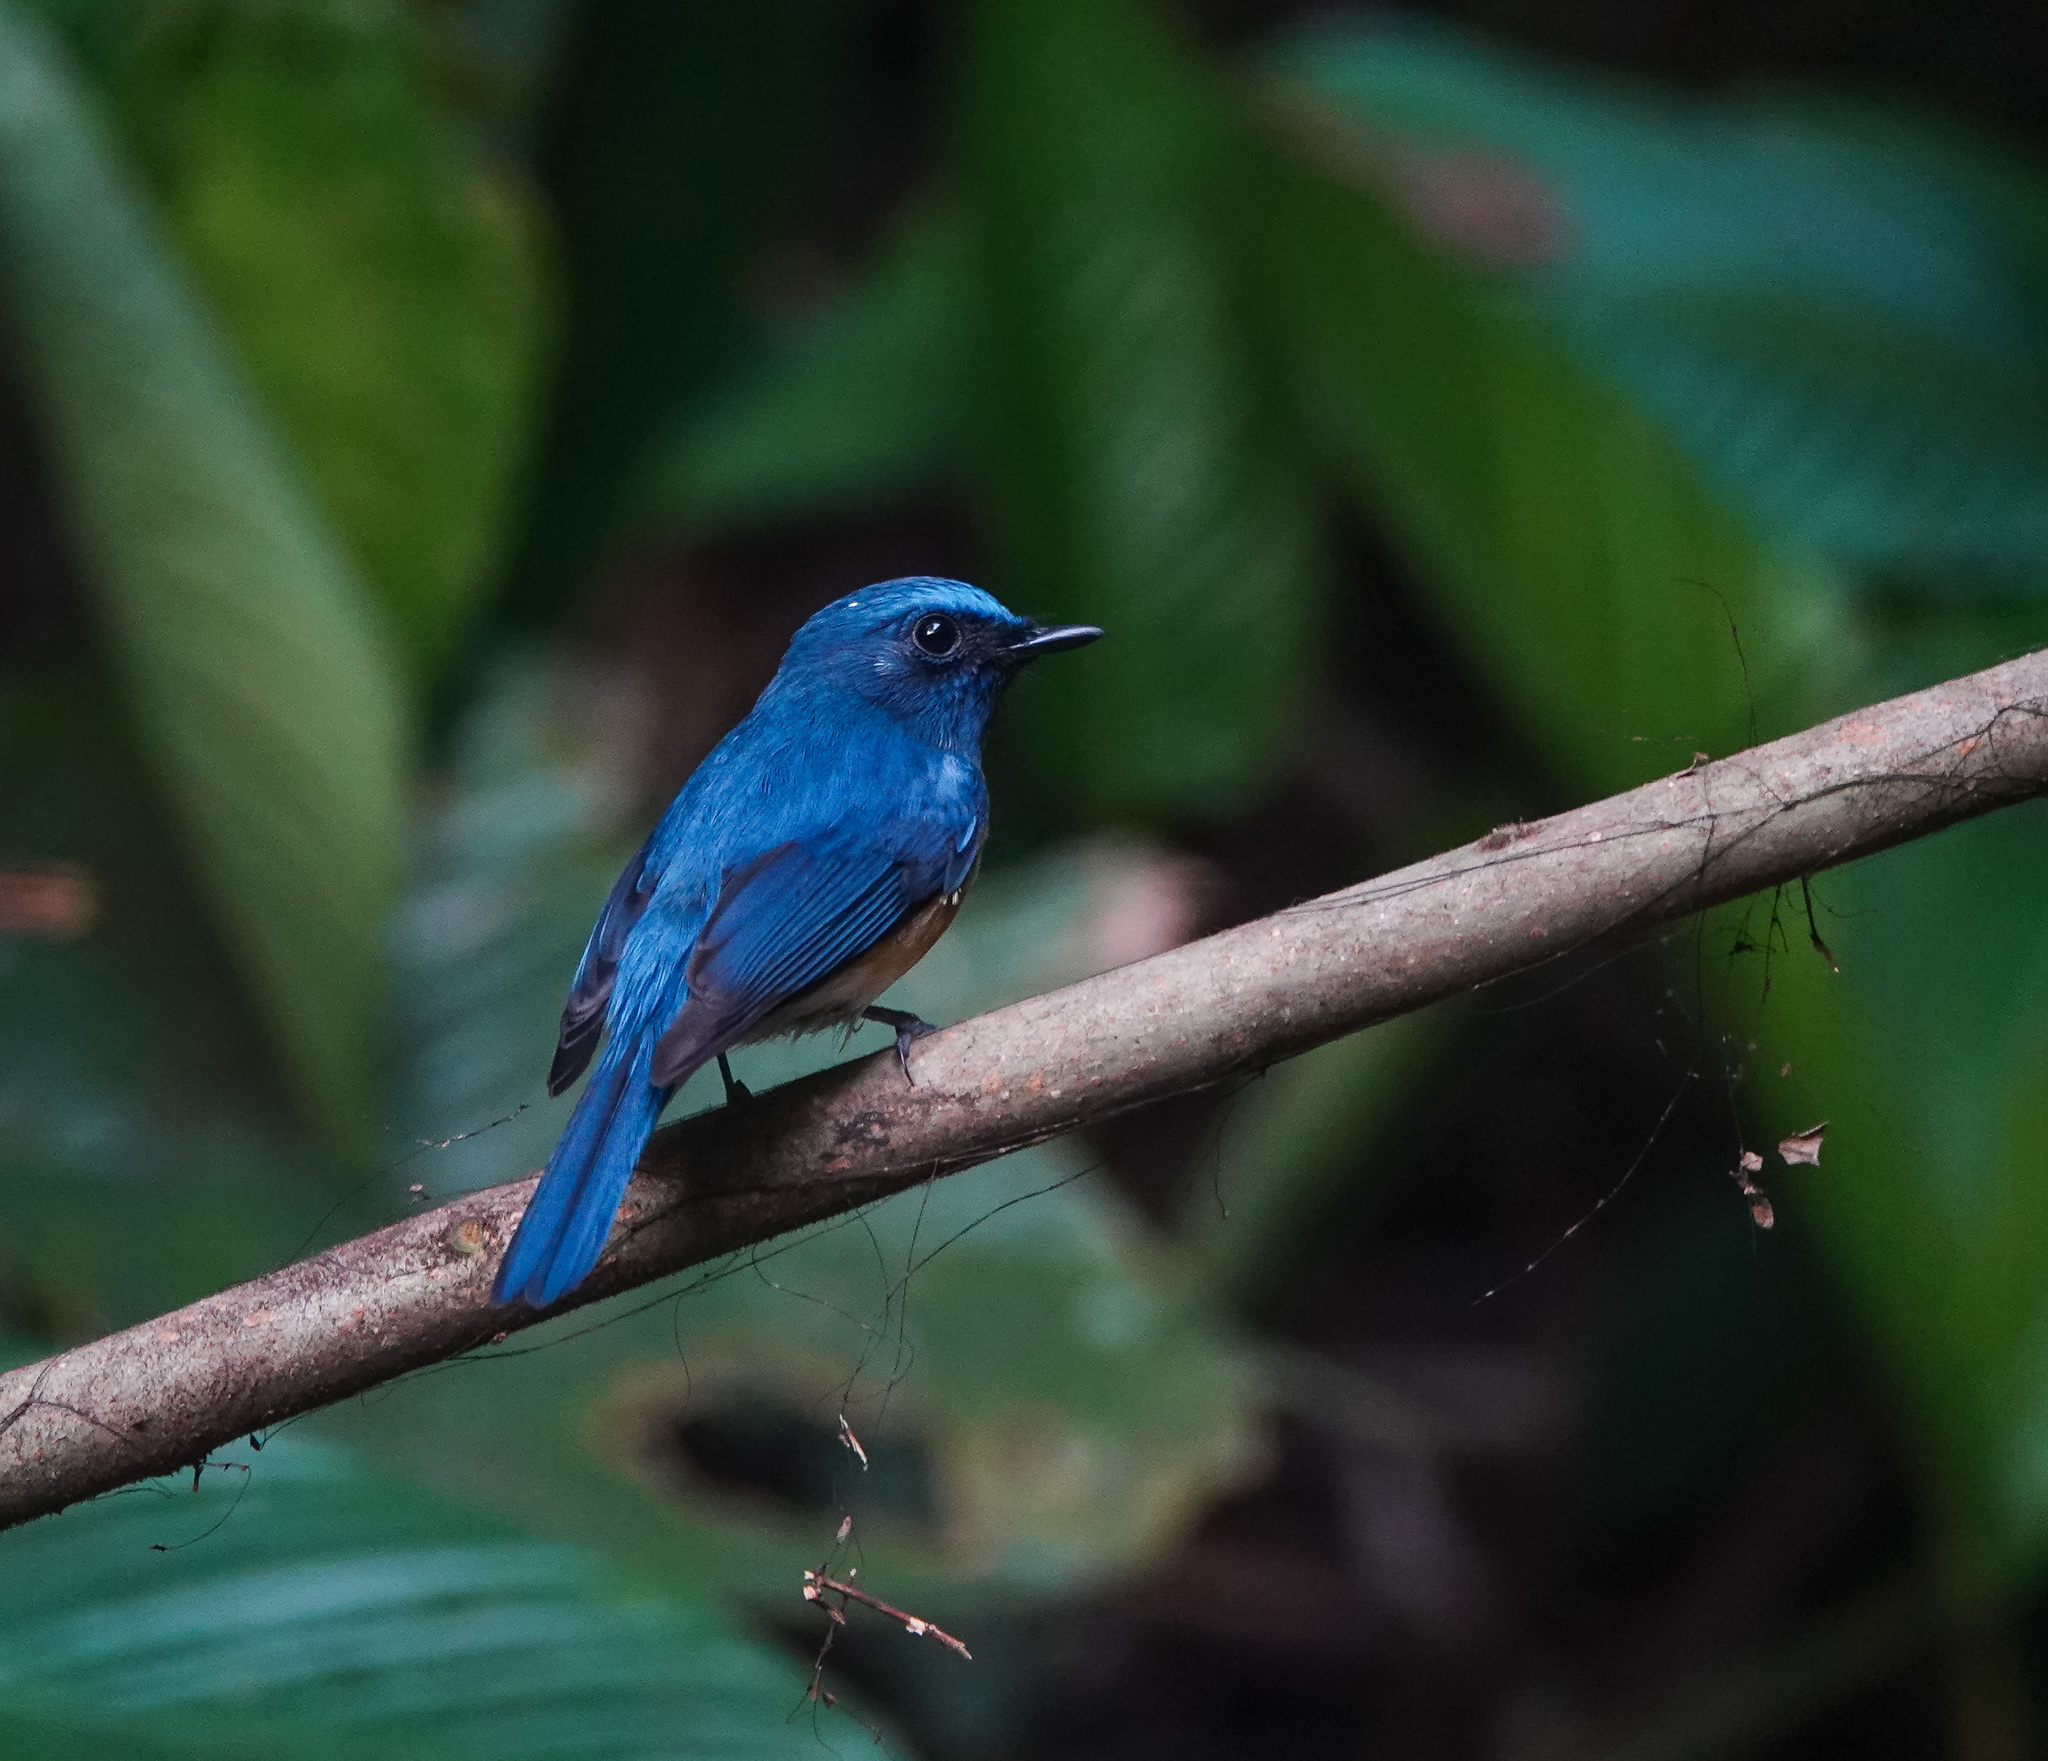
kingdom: Animalia
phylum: Chordata
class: Aves
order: Passeriformes
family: Muscicapidae
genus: Cyornis
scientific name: Cyornis rubeculoides
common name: Blue-throated blue flycatcher
